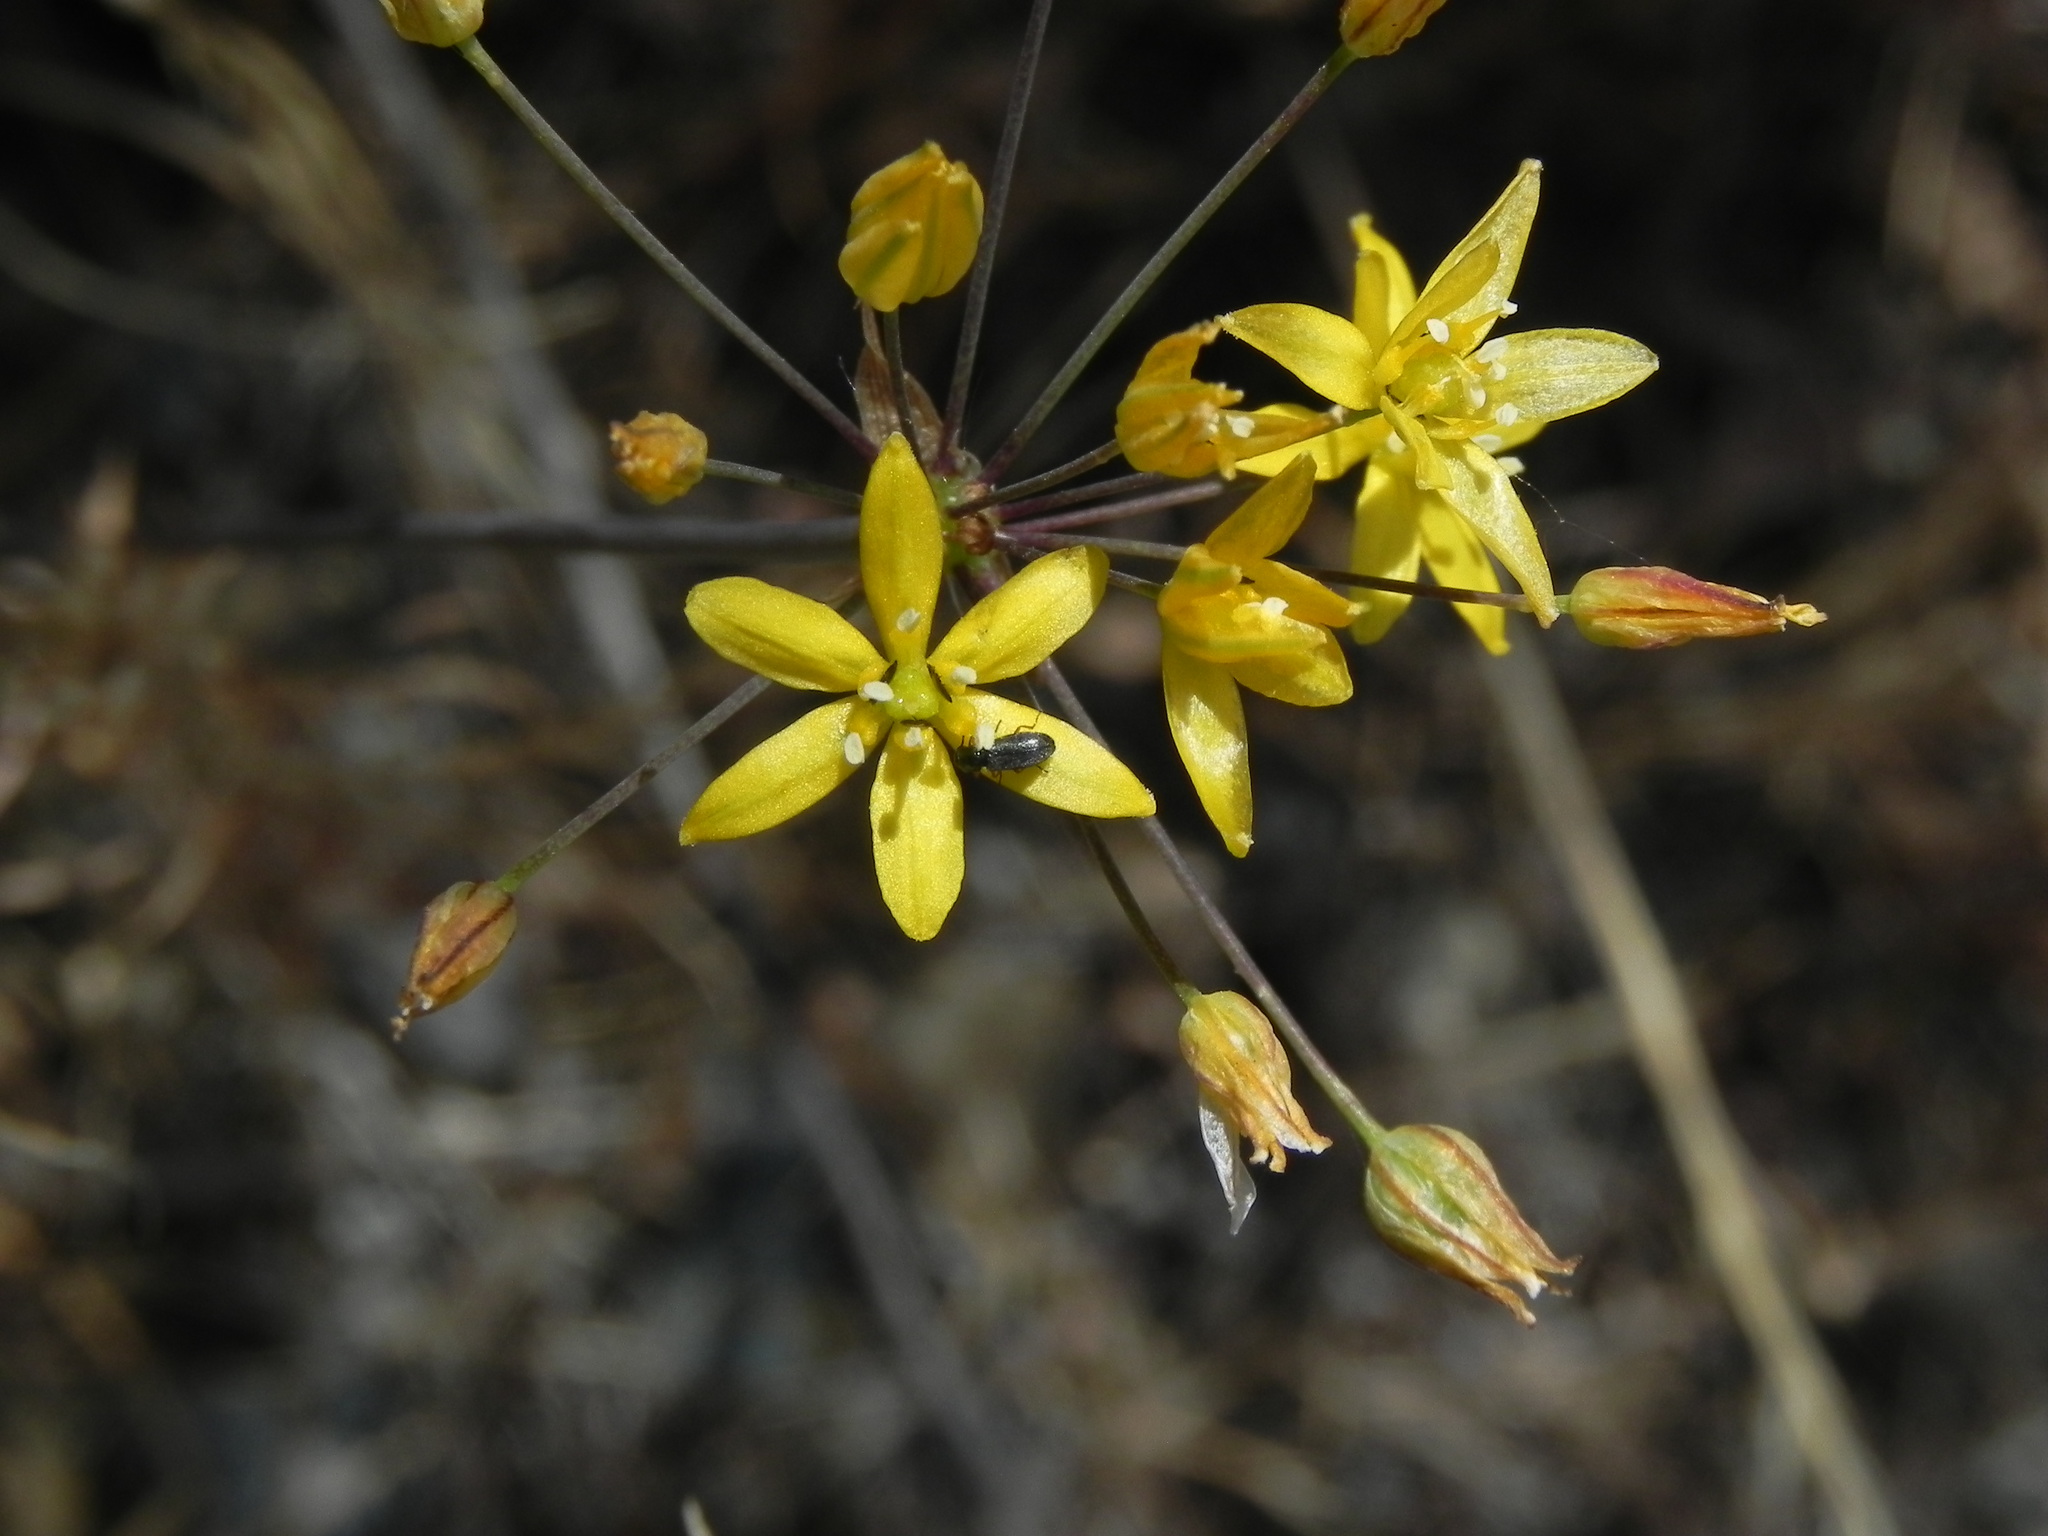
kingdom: Plantae
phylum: Tracheophyta
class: Liliopsida
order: Asparagales
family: Asparagaceae
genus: Bloomeria
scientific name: Bloomeria clevelandii
